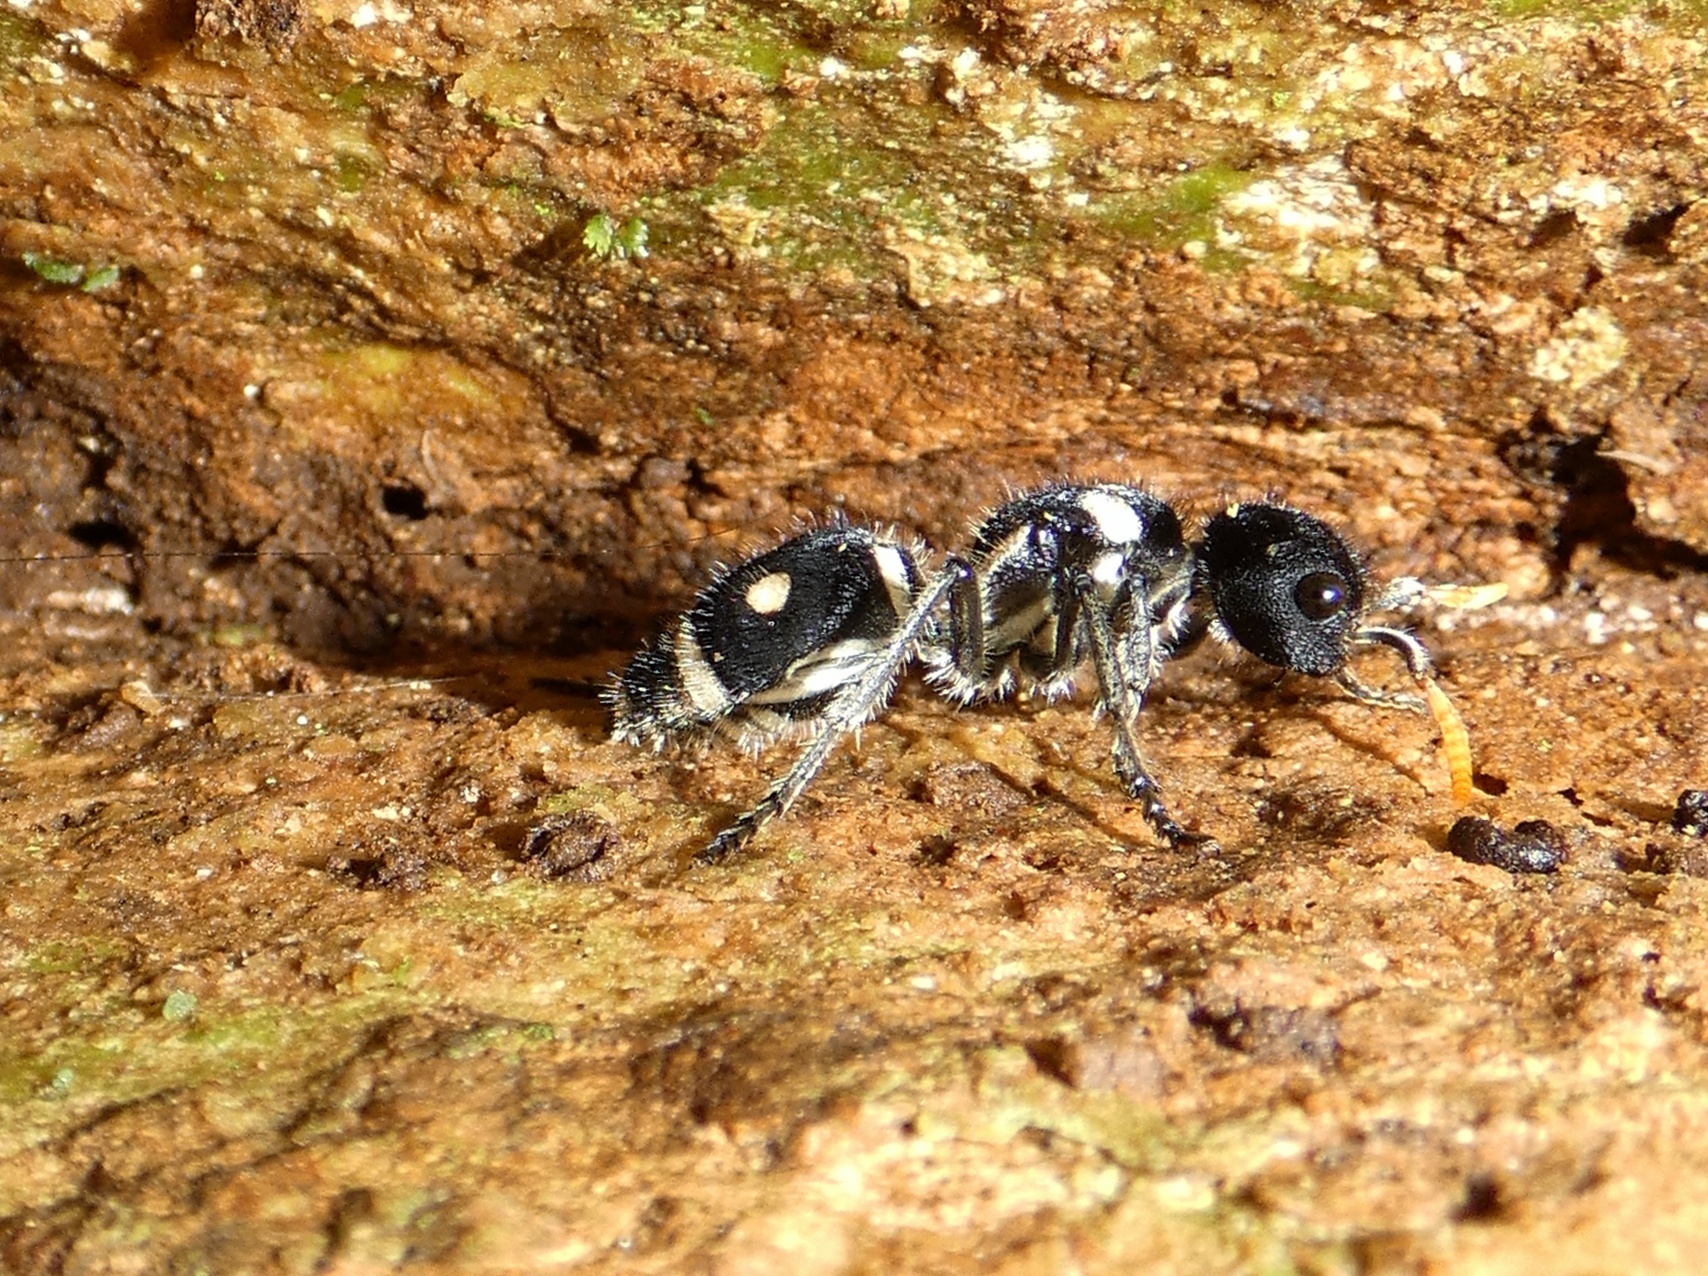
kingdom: Animalia
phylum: Arthropoda
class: Insecta
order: Hymenoptera
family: Mutillidae
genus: Hoplomutilla
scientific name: Hoplomutilla
